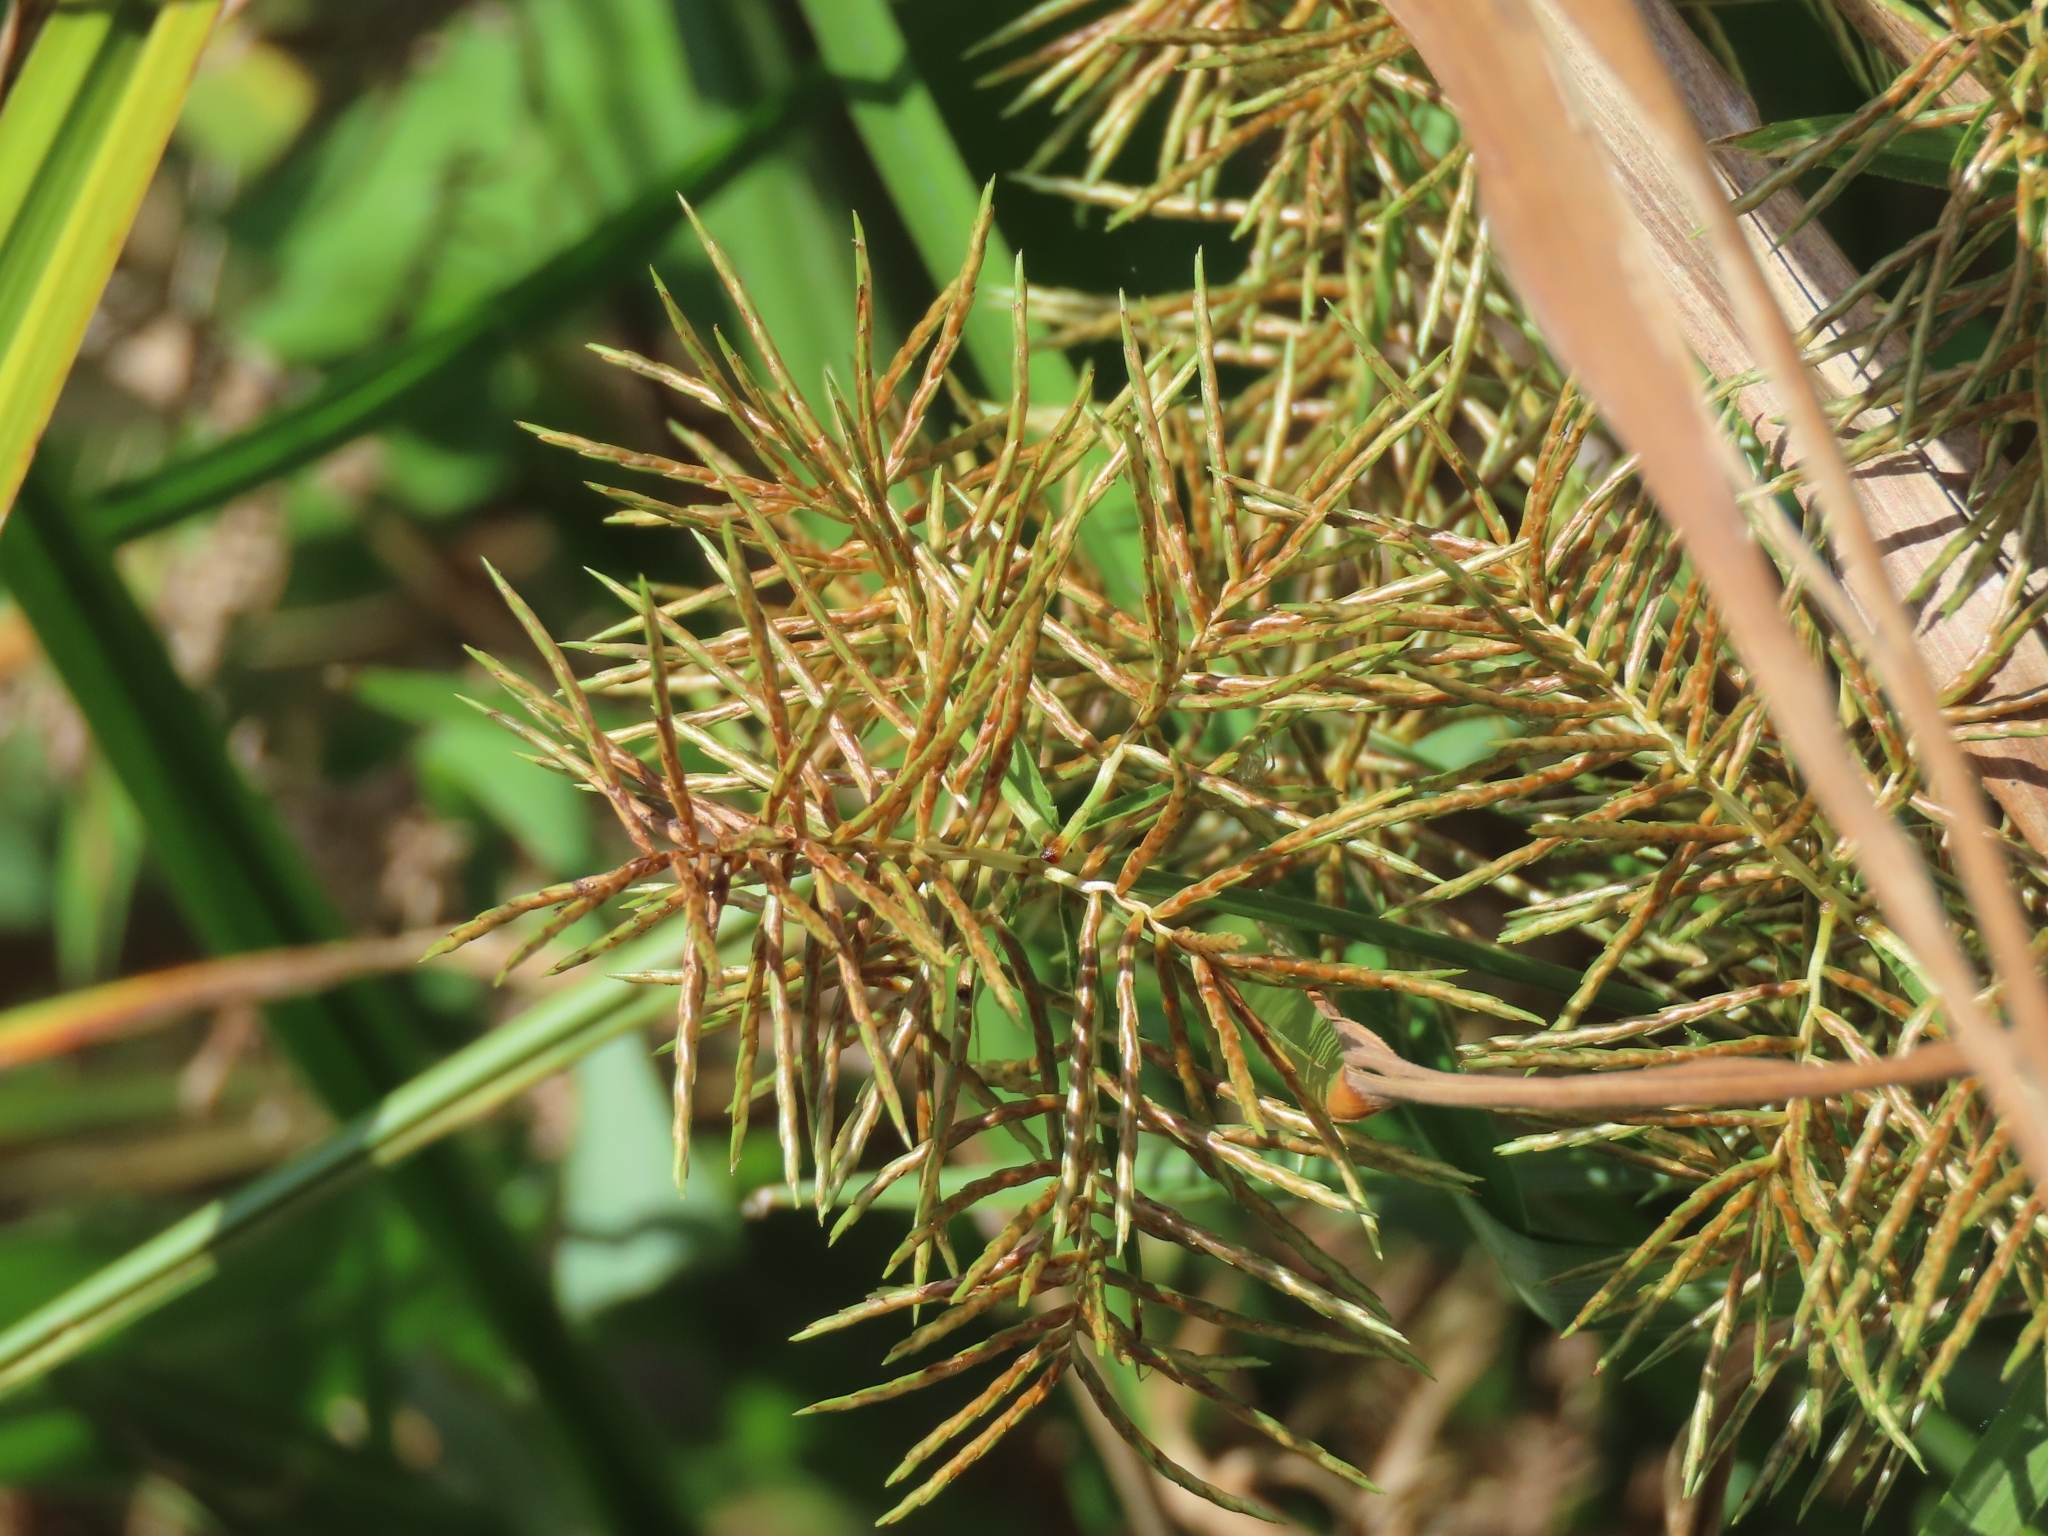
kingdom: Plantae
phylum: Tracheophyta
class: Liliopsida
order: Poales
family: Cyperaceae
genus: Cyperus
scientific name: Cyperus odoratus
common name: Fragrant flatsedge
